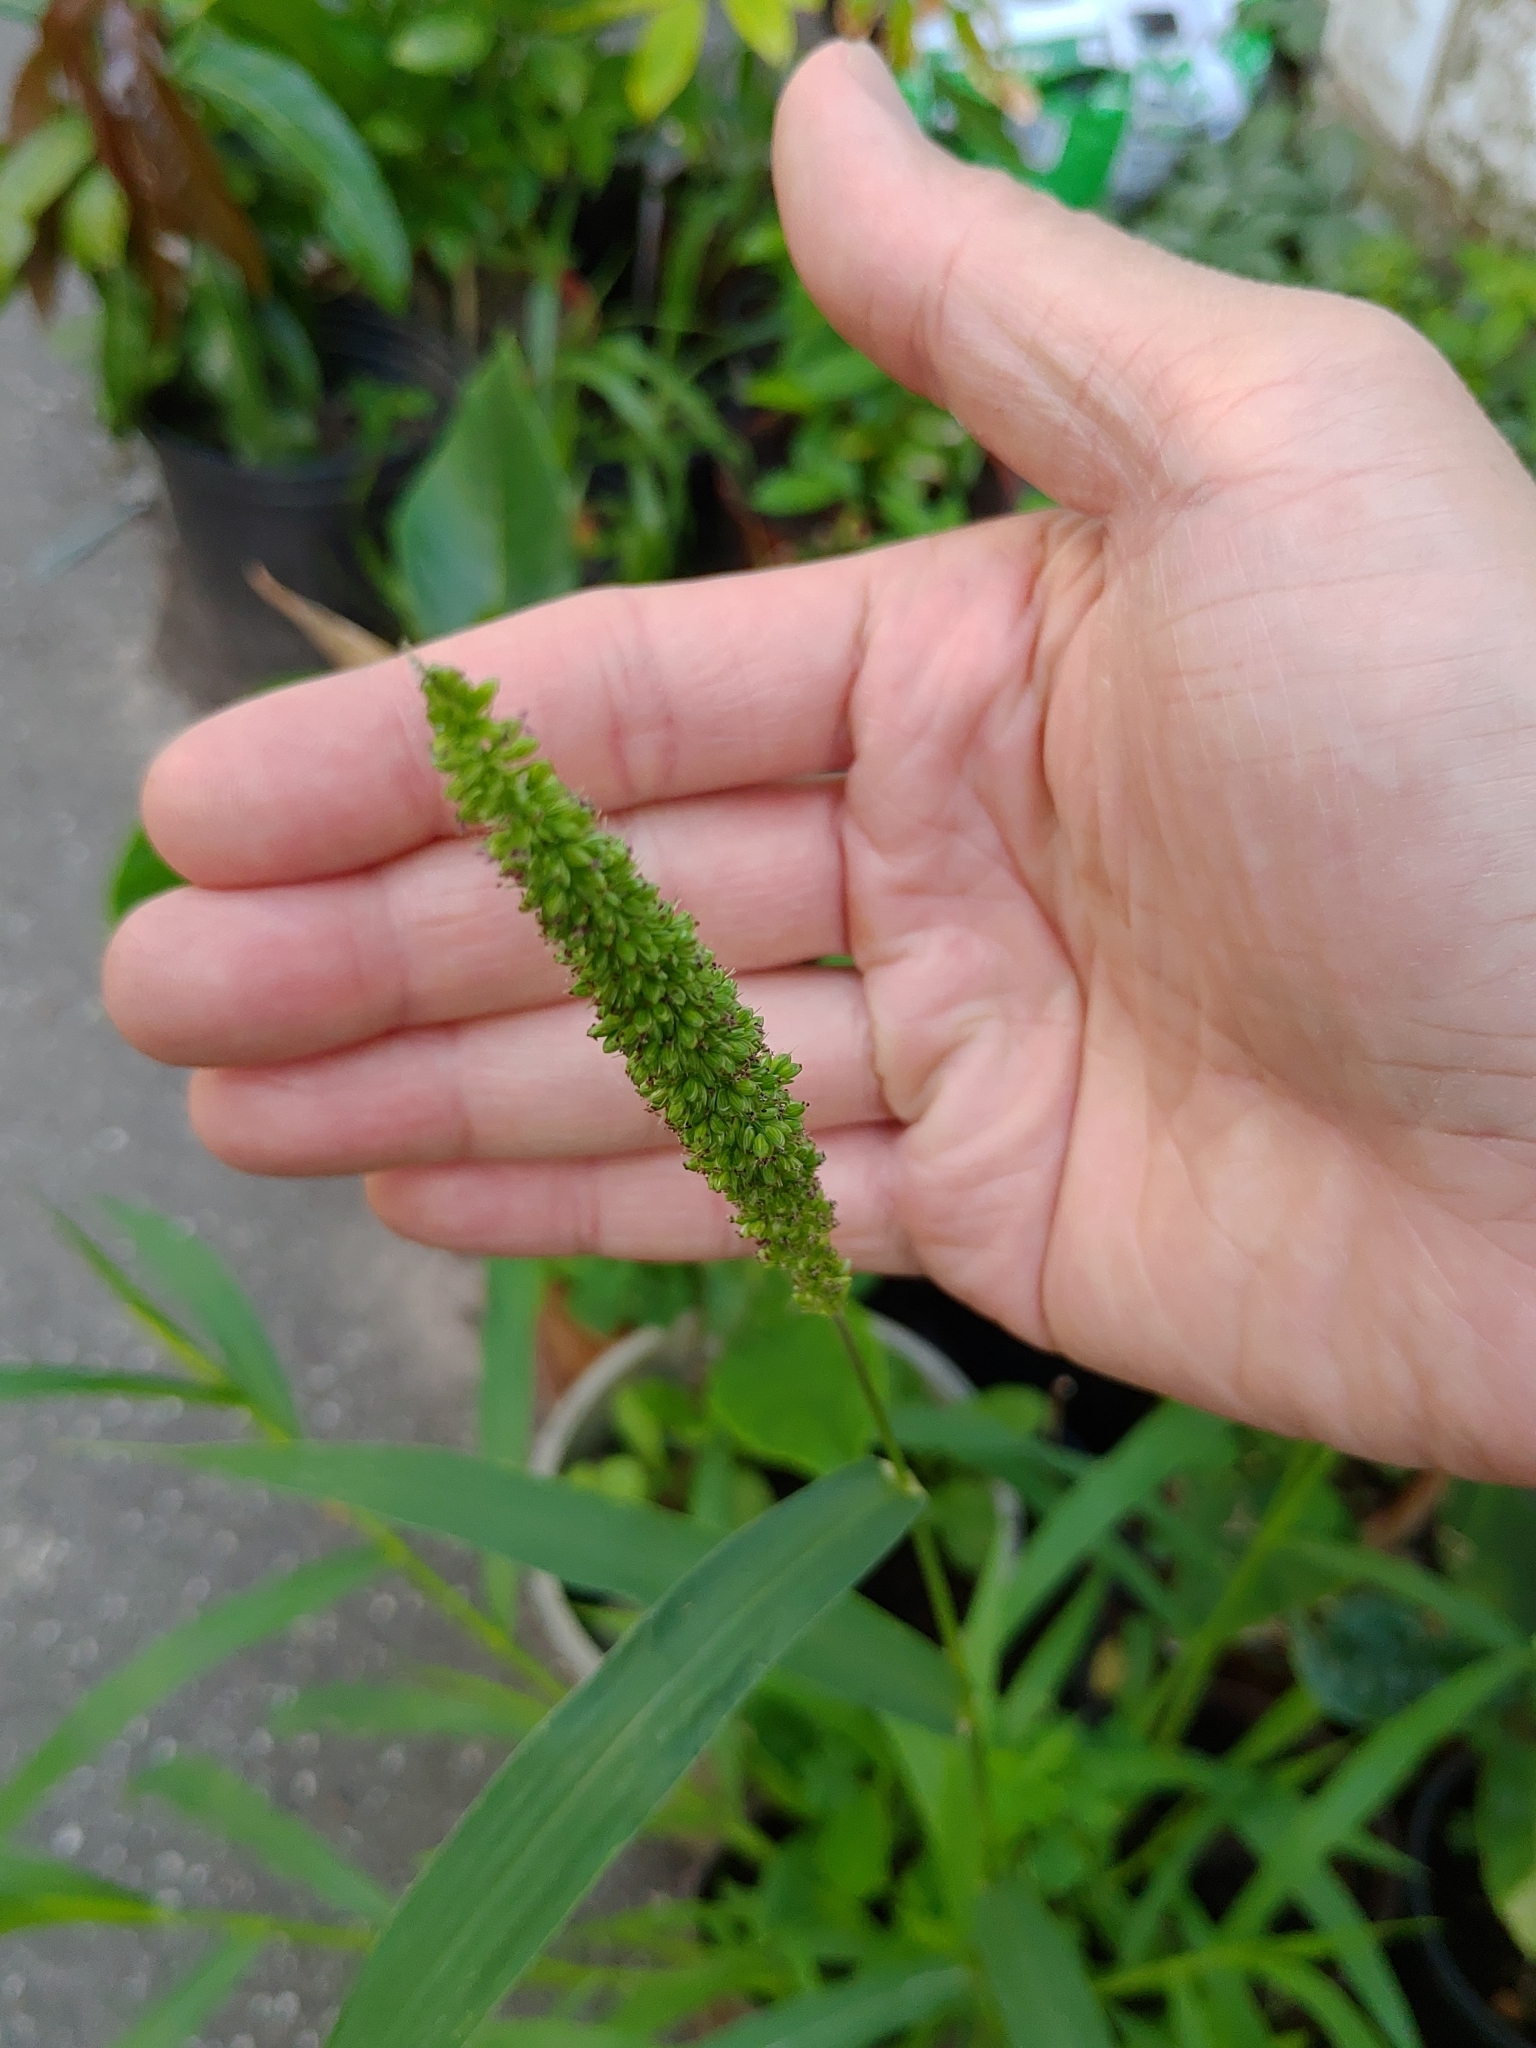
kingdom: Plantae
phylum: Tracheophyta
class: Liliopsida
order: Poales
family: Poaceae
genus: Setaria
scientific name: Setaria viridis
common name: Green bristlegrass
